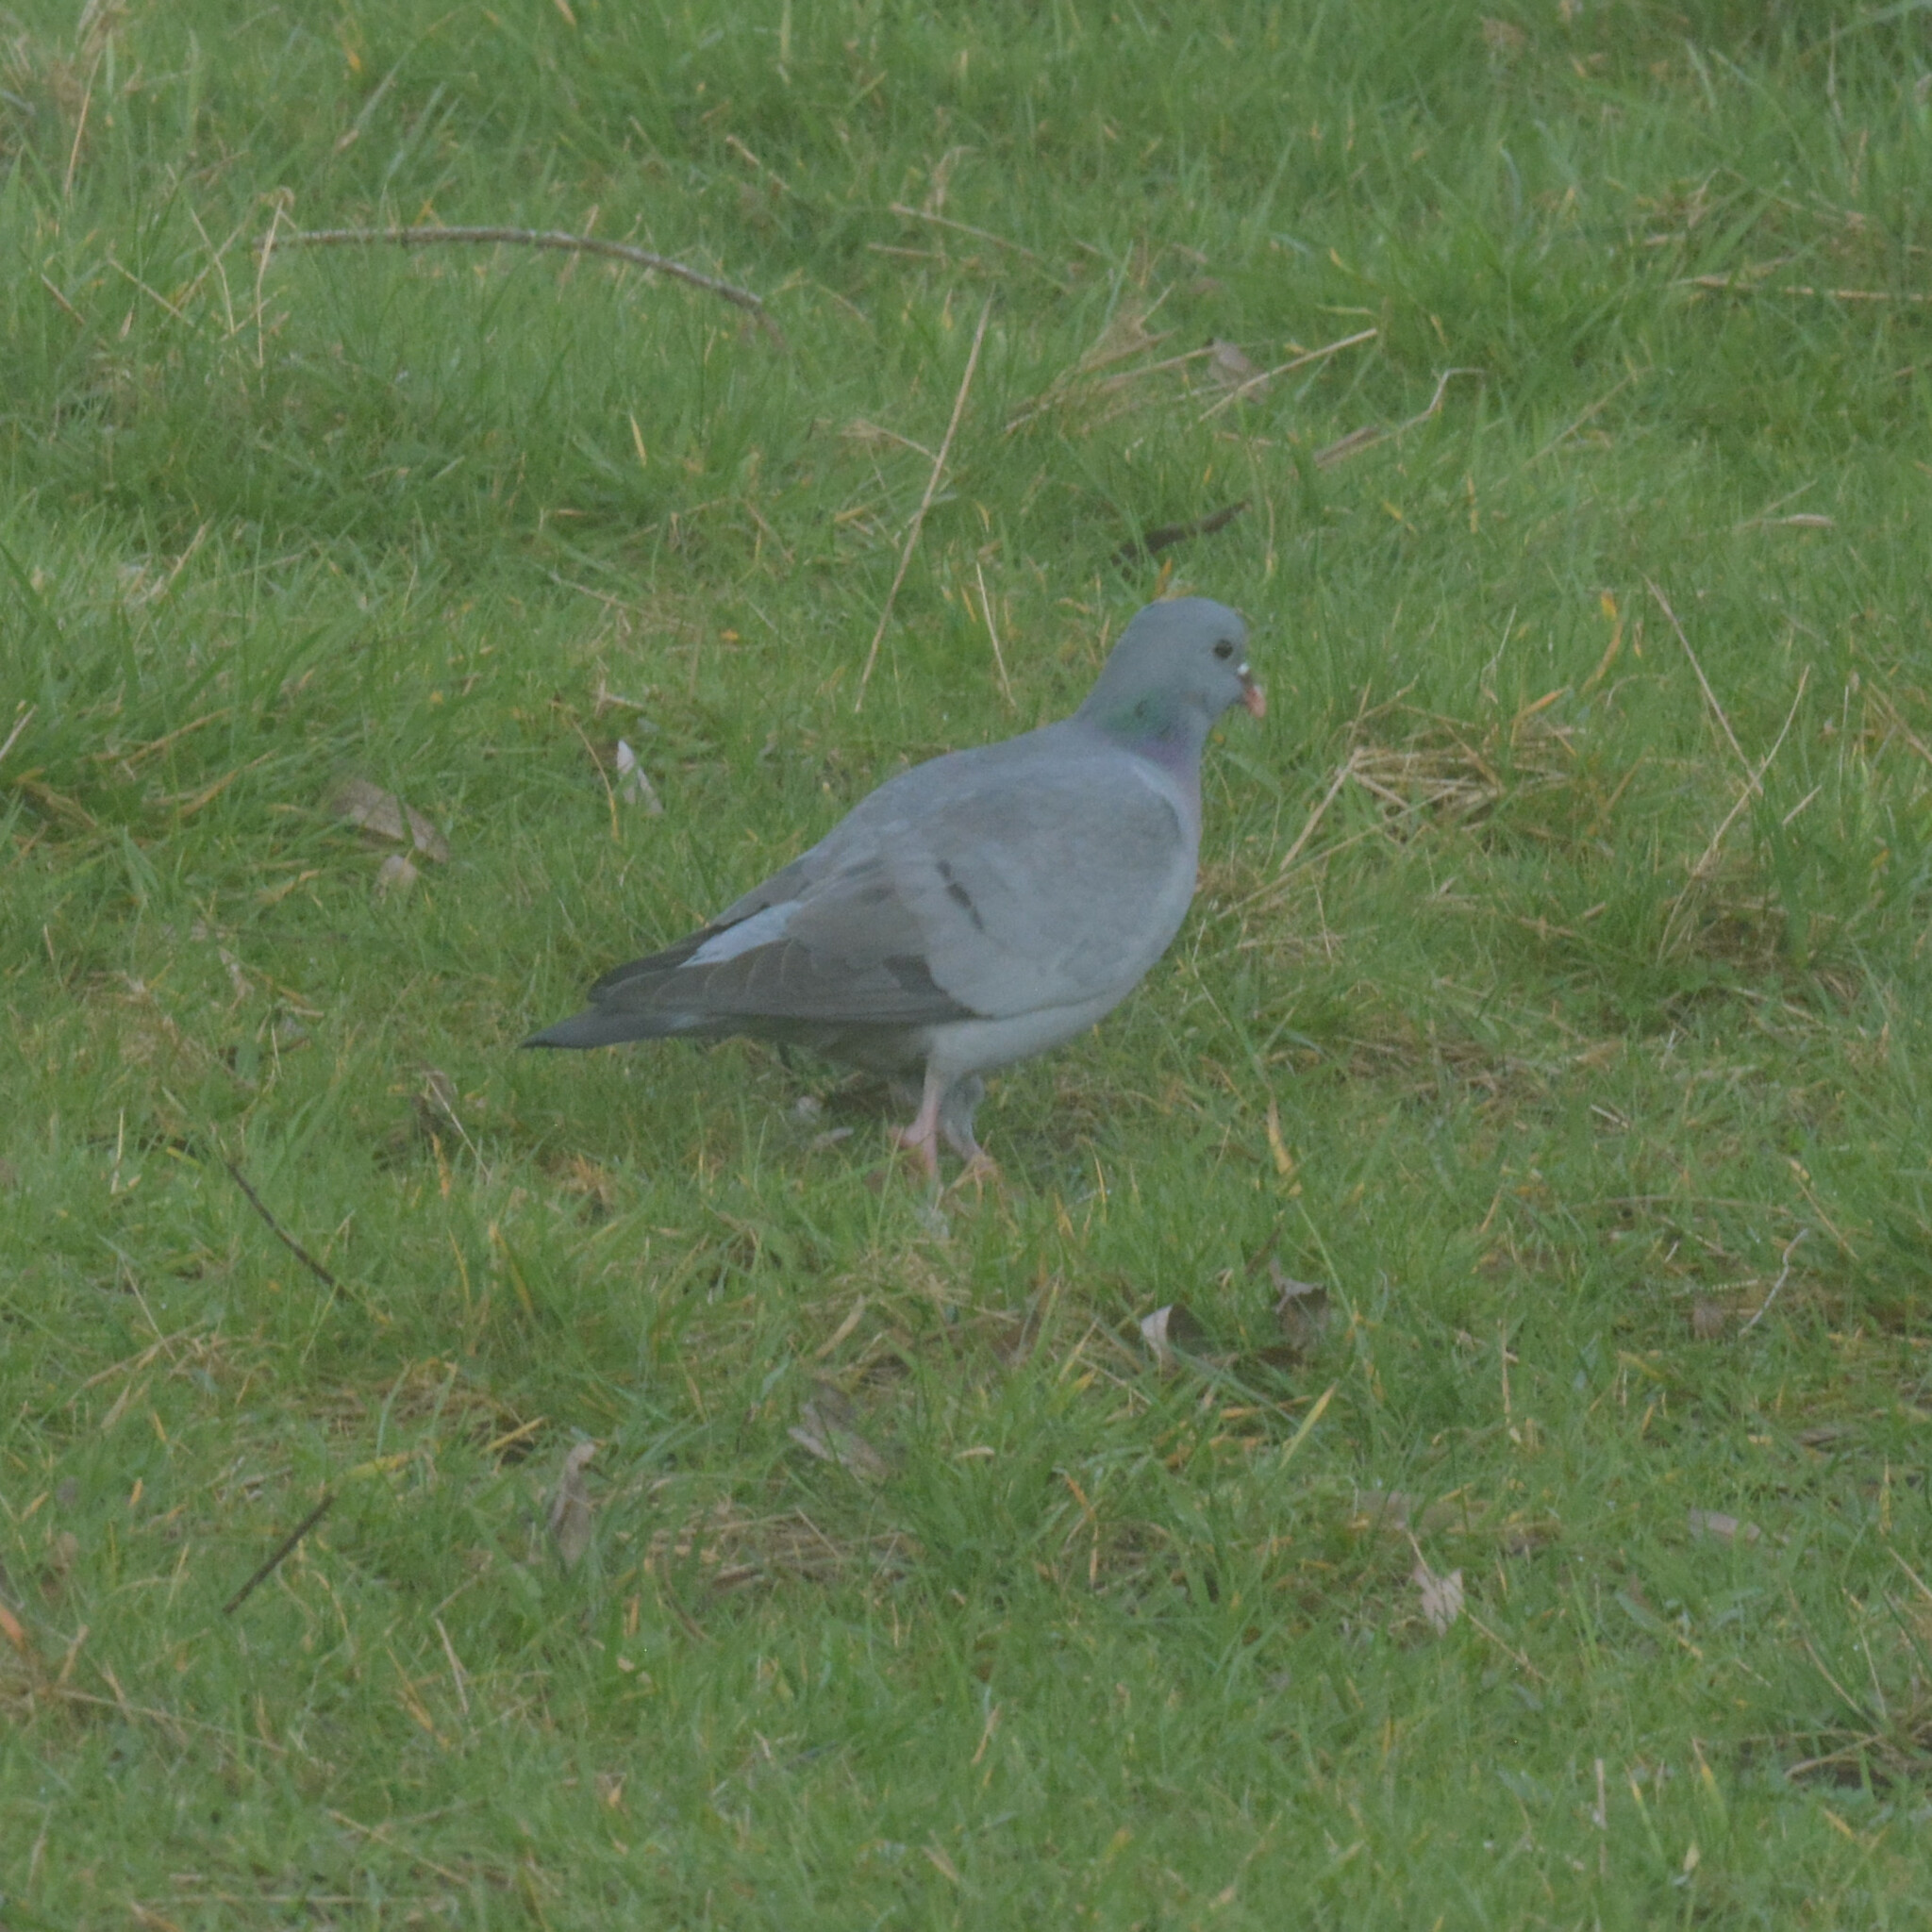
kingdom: Animalia
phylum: Chordata
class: Aves
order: Columbiformes
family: Columbidae
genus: Columba
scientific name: Columba oenas
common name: Stock dove
